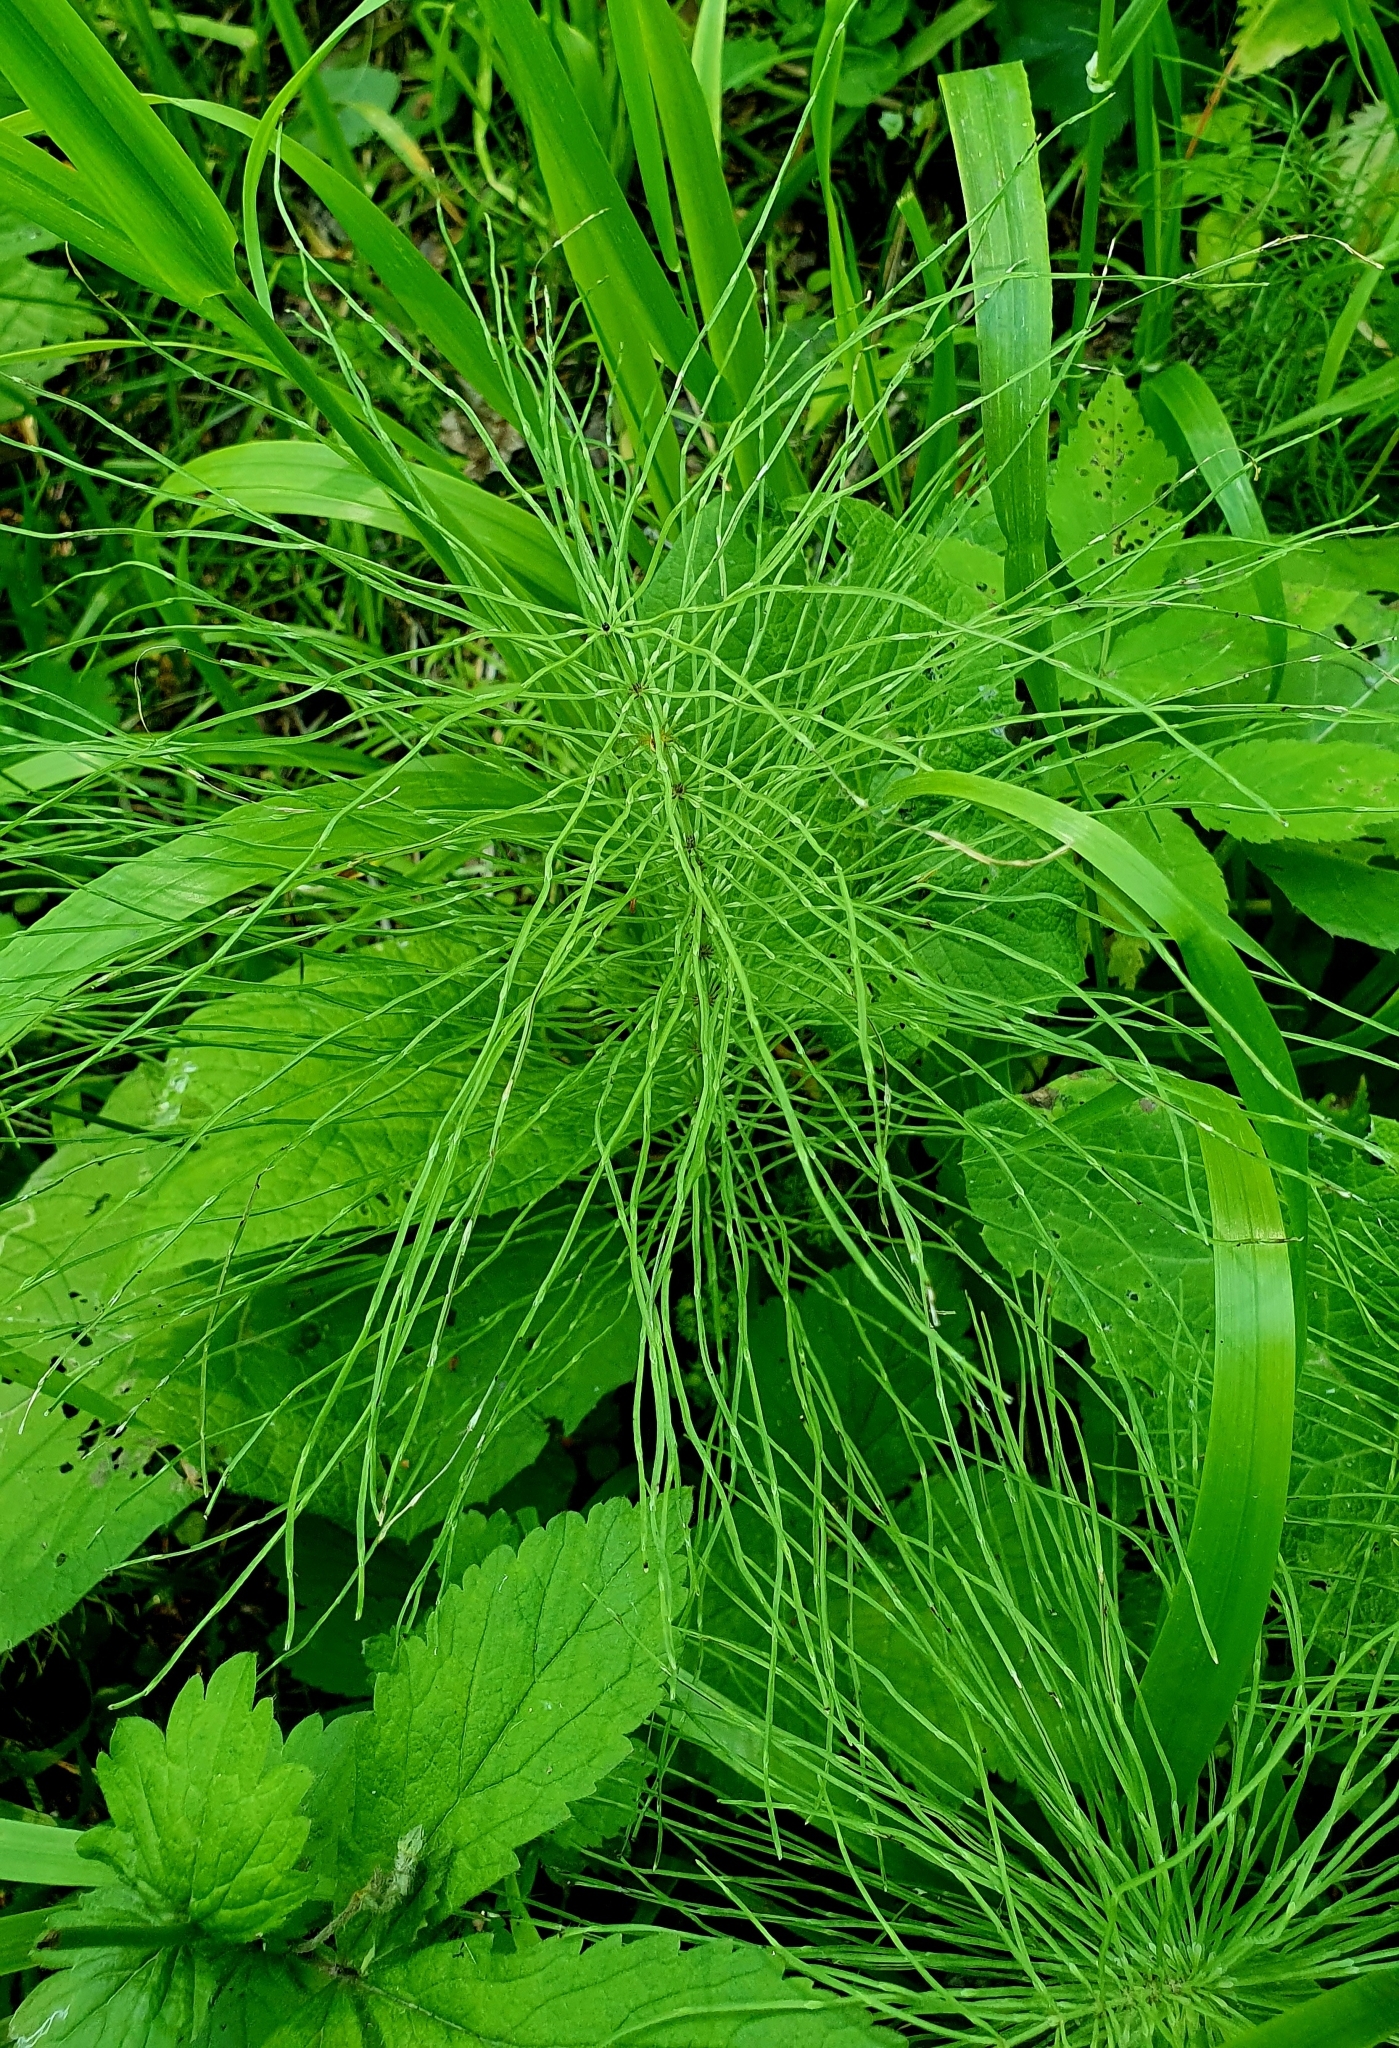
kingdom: Plantae
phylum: Tracheophyta
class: Polypodiopsida
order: Equisetales
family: Equisetaceae
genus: Equisetum
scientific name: Equisetum pratense
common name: Meadow horsetail
